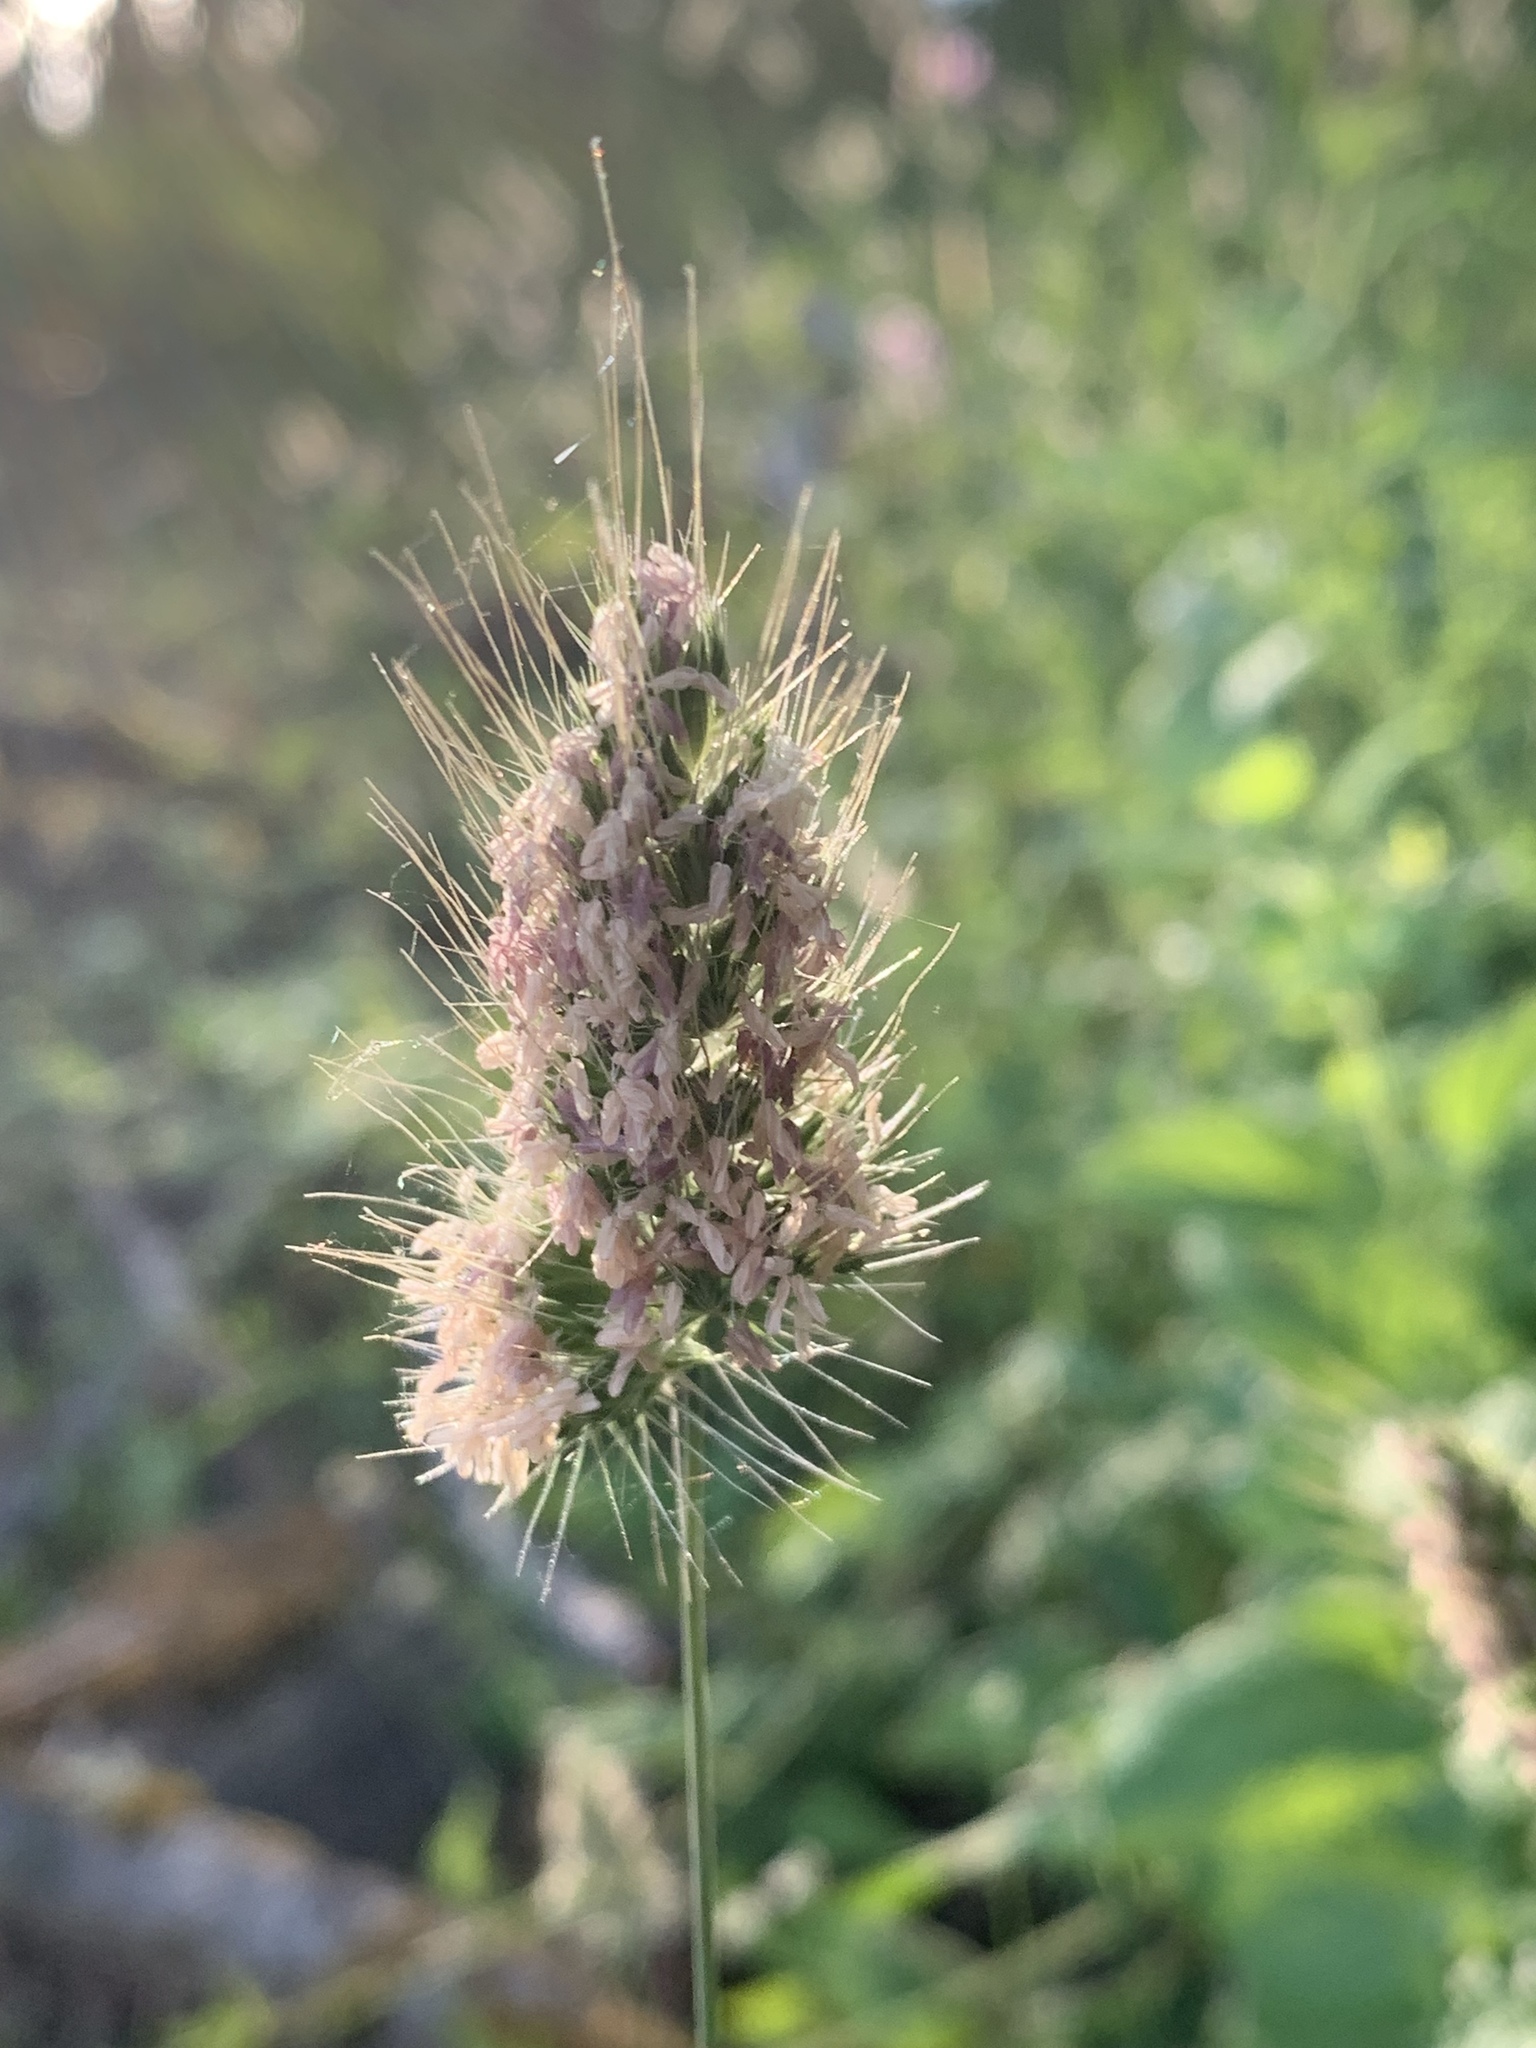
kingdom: Plantae
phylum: Tracheophyta
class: Liliopsida
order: Poales
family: Poaceae
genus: Cynosurus
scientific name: Cynosurus echinatus
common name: Rough dog's-tail
